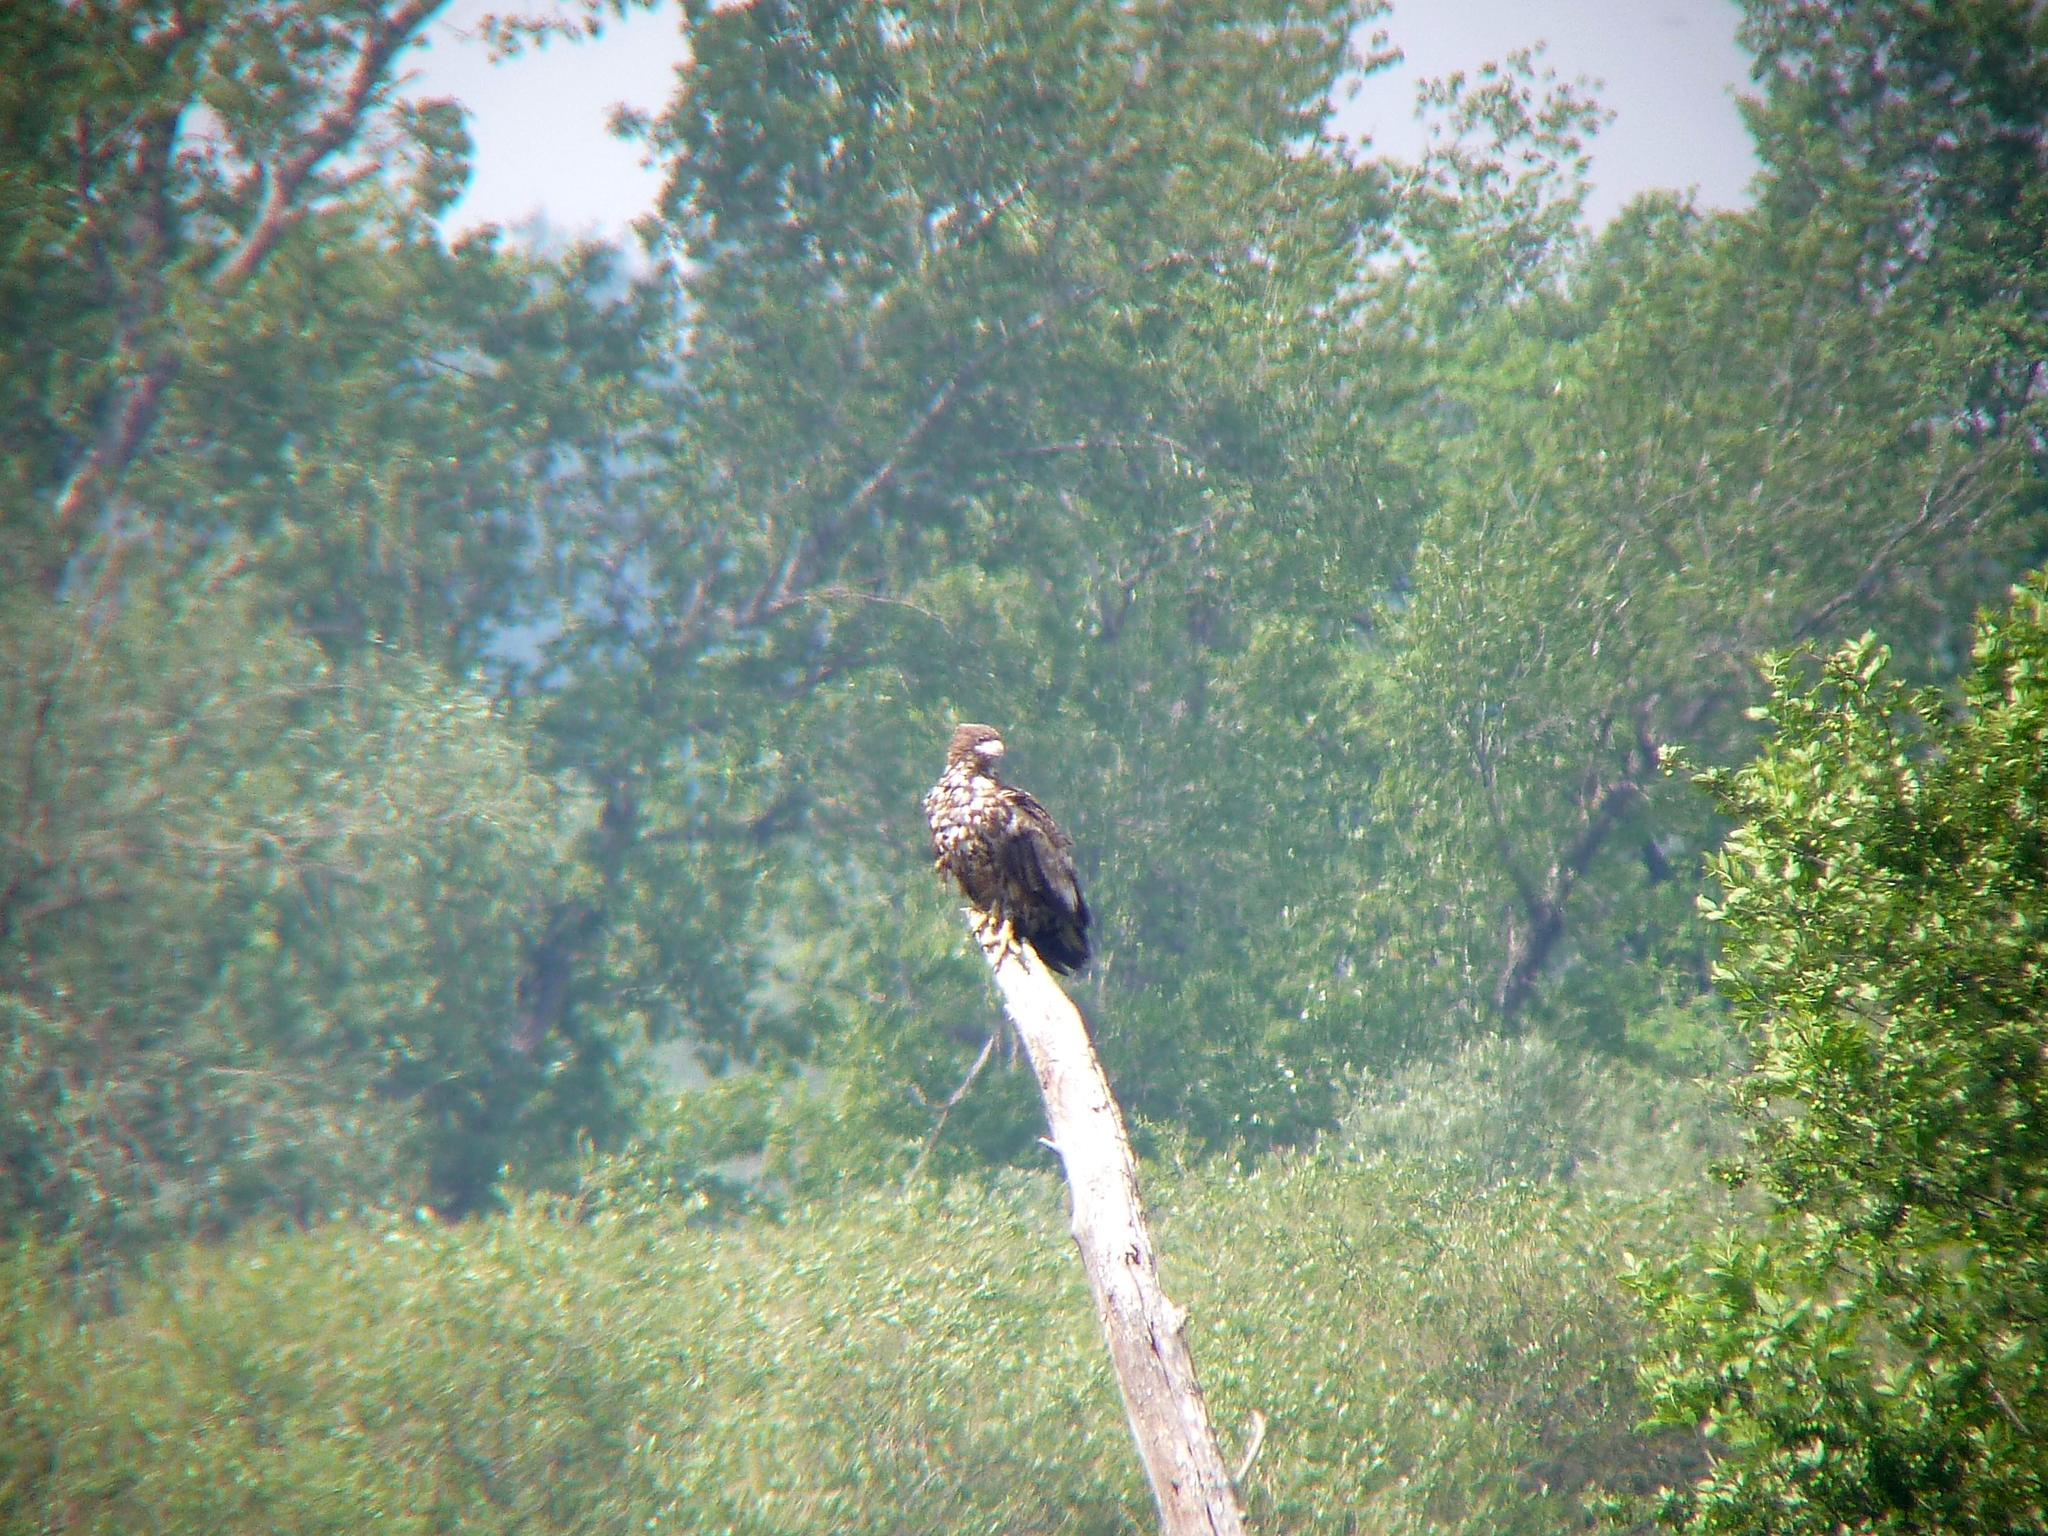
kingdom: Animalia
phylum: Chordata
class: Aves
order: Accipitriformes
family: Accipitridae
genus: Haliaeetus
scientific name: Haliaeetus albicilla
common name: White-tailed eagle
